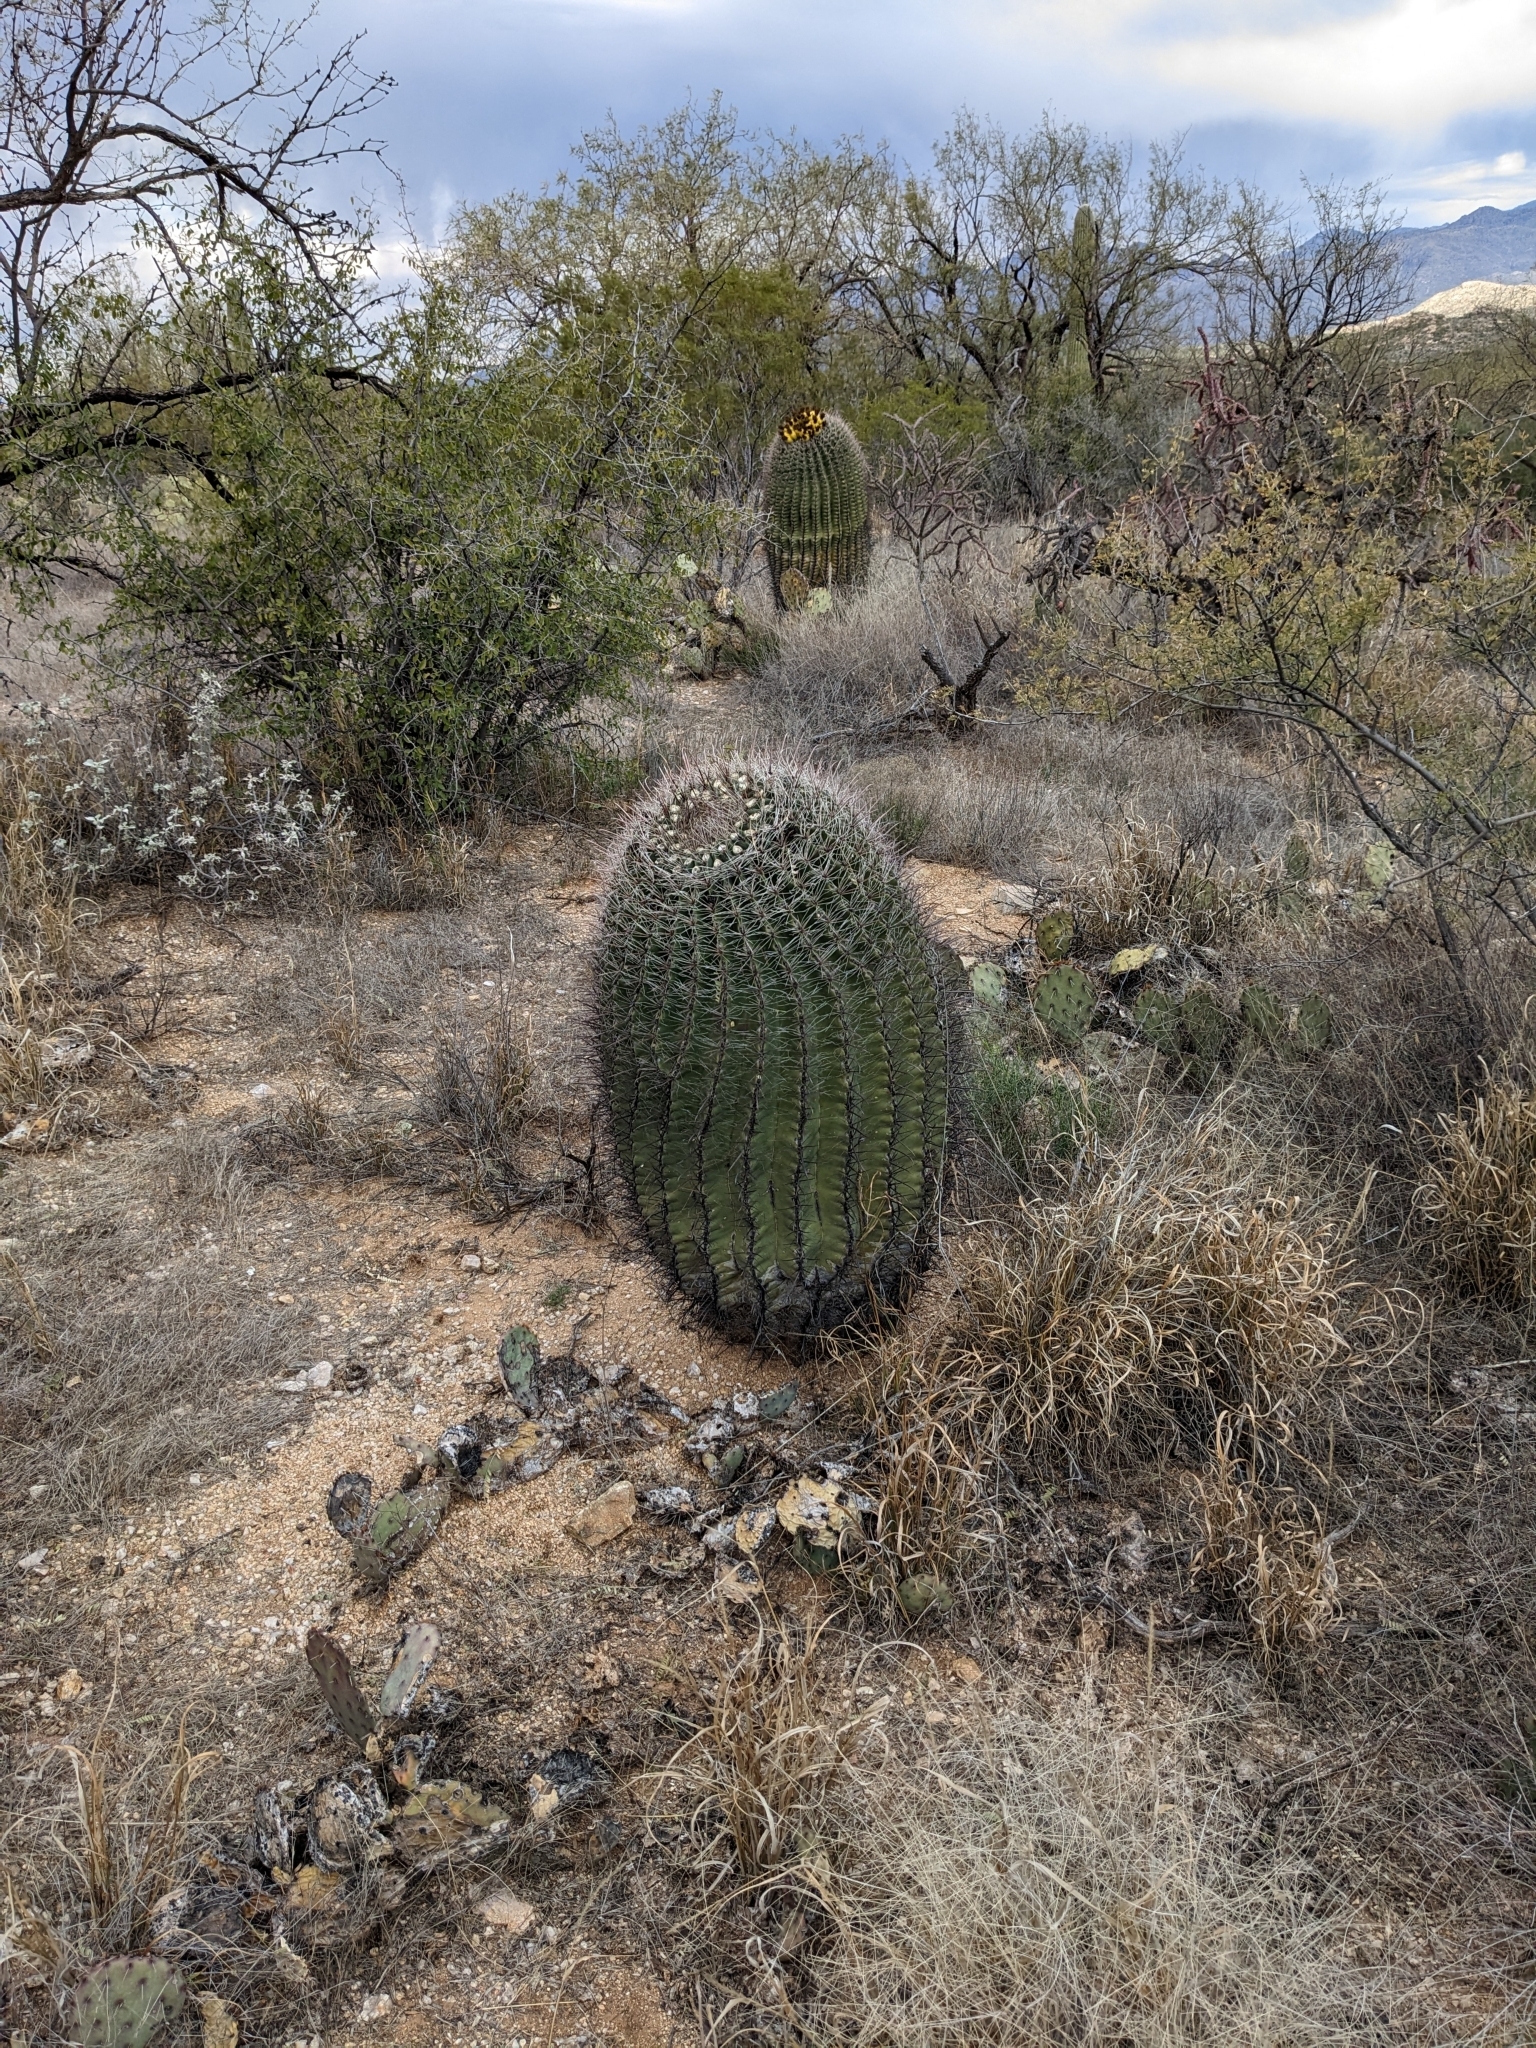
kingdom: Plantae
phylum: Tracheophyta
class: Magnoliopsida
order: Caryophyllales
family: Cactaceae
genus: Ferocactus
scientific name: Ferocactus wislizeni
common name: Candy barrel cactus
